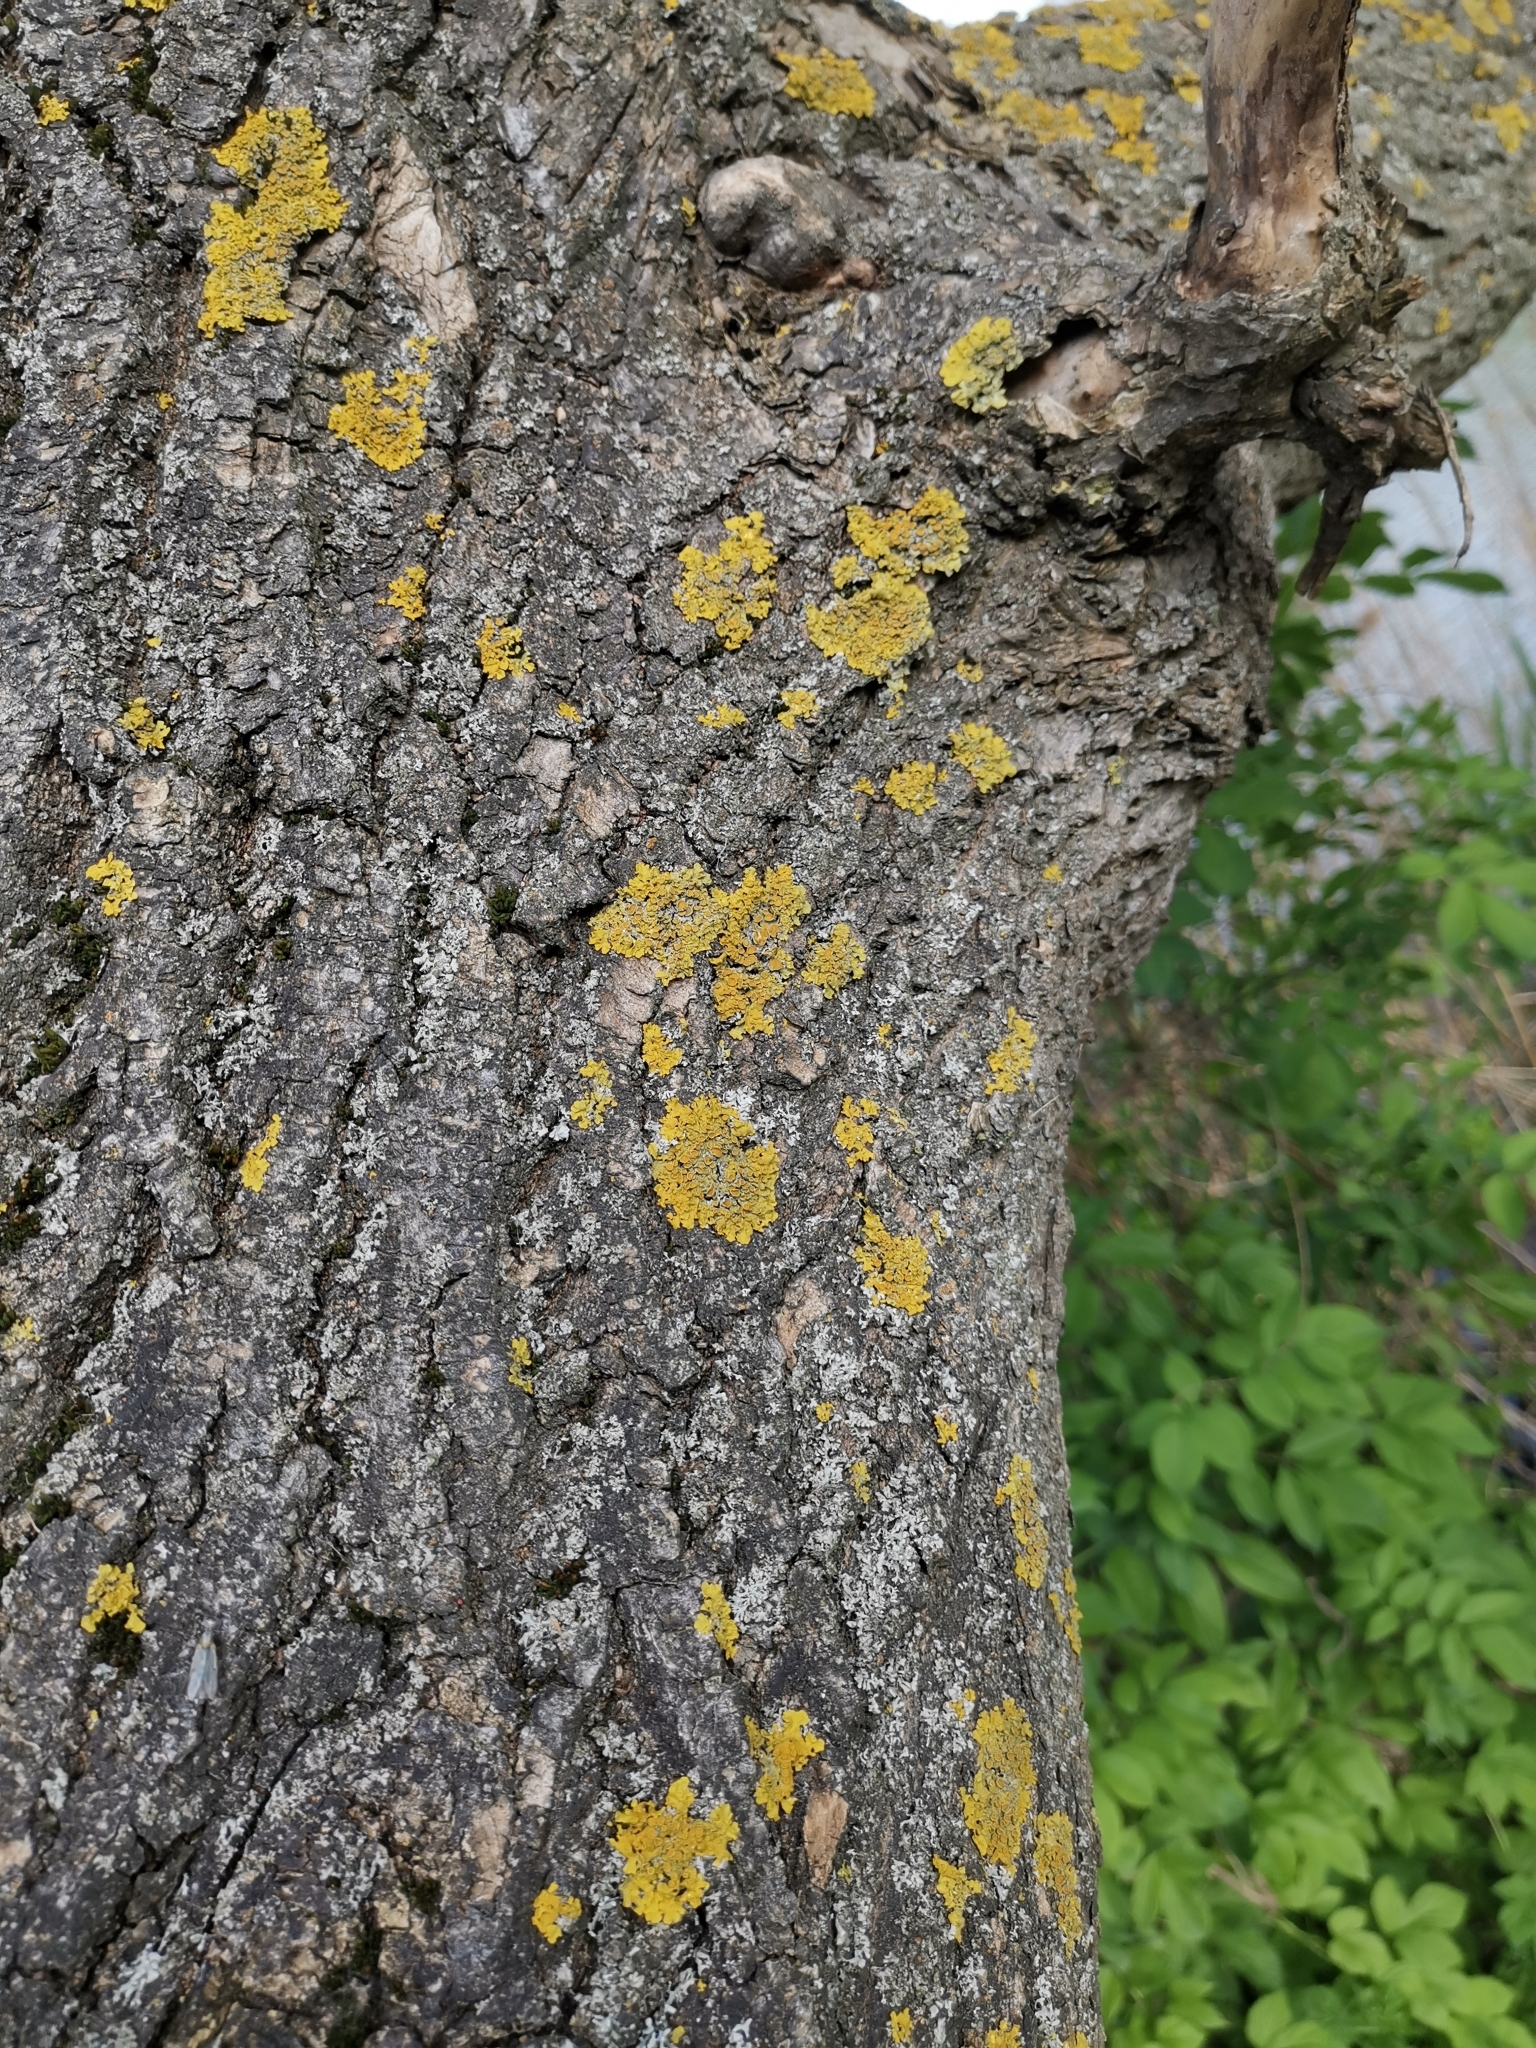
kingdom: Fungi
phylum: Ascomycota
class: Lecanoromycetes
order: Teloschistales
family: Teloschistaceae
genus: Xanthoria
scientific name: Xanthoria parietina
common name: Common orange lichen
